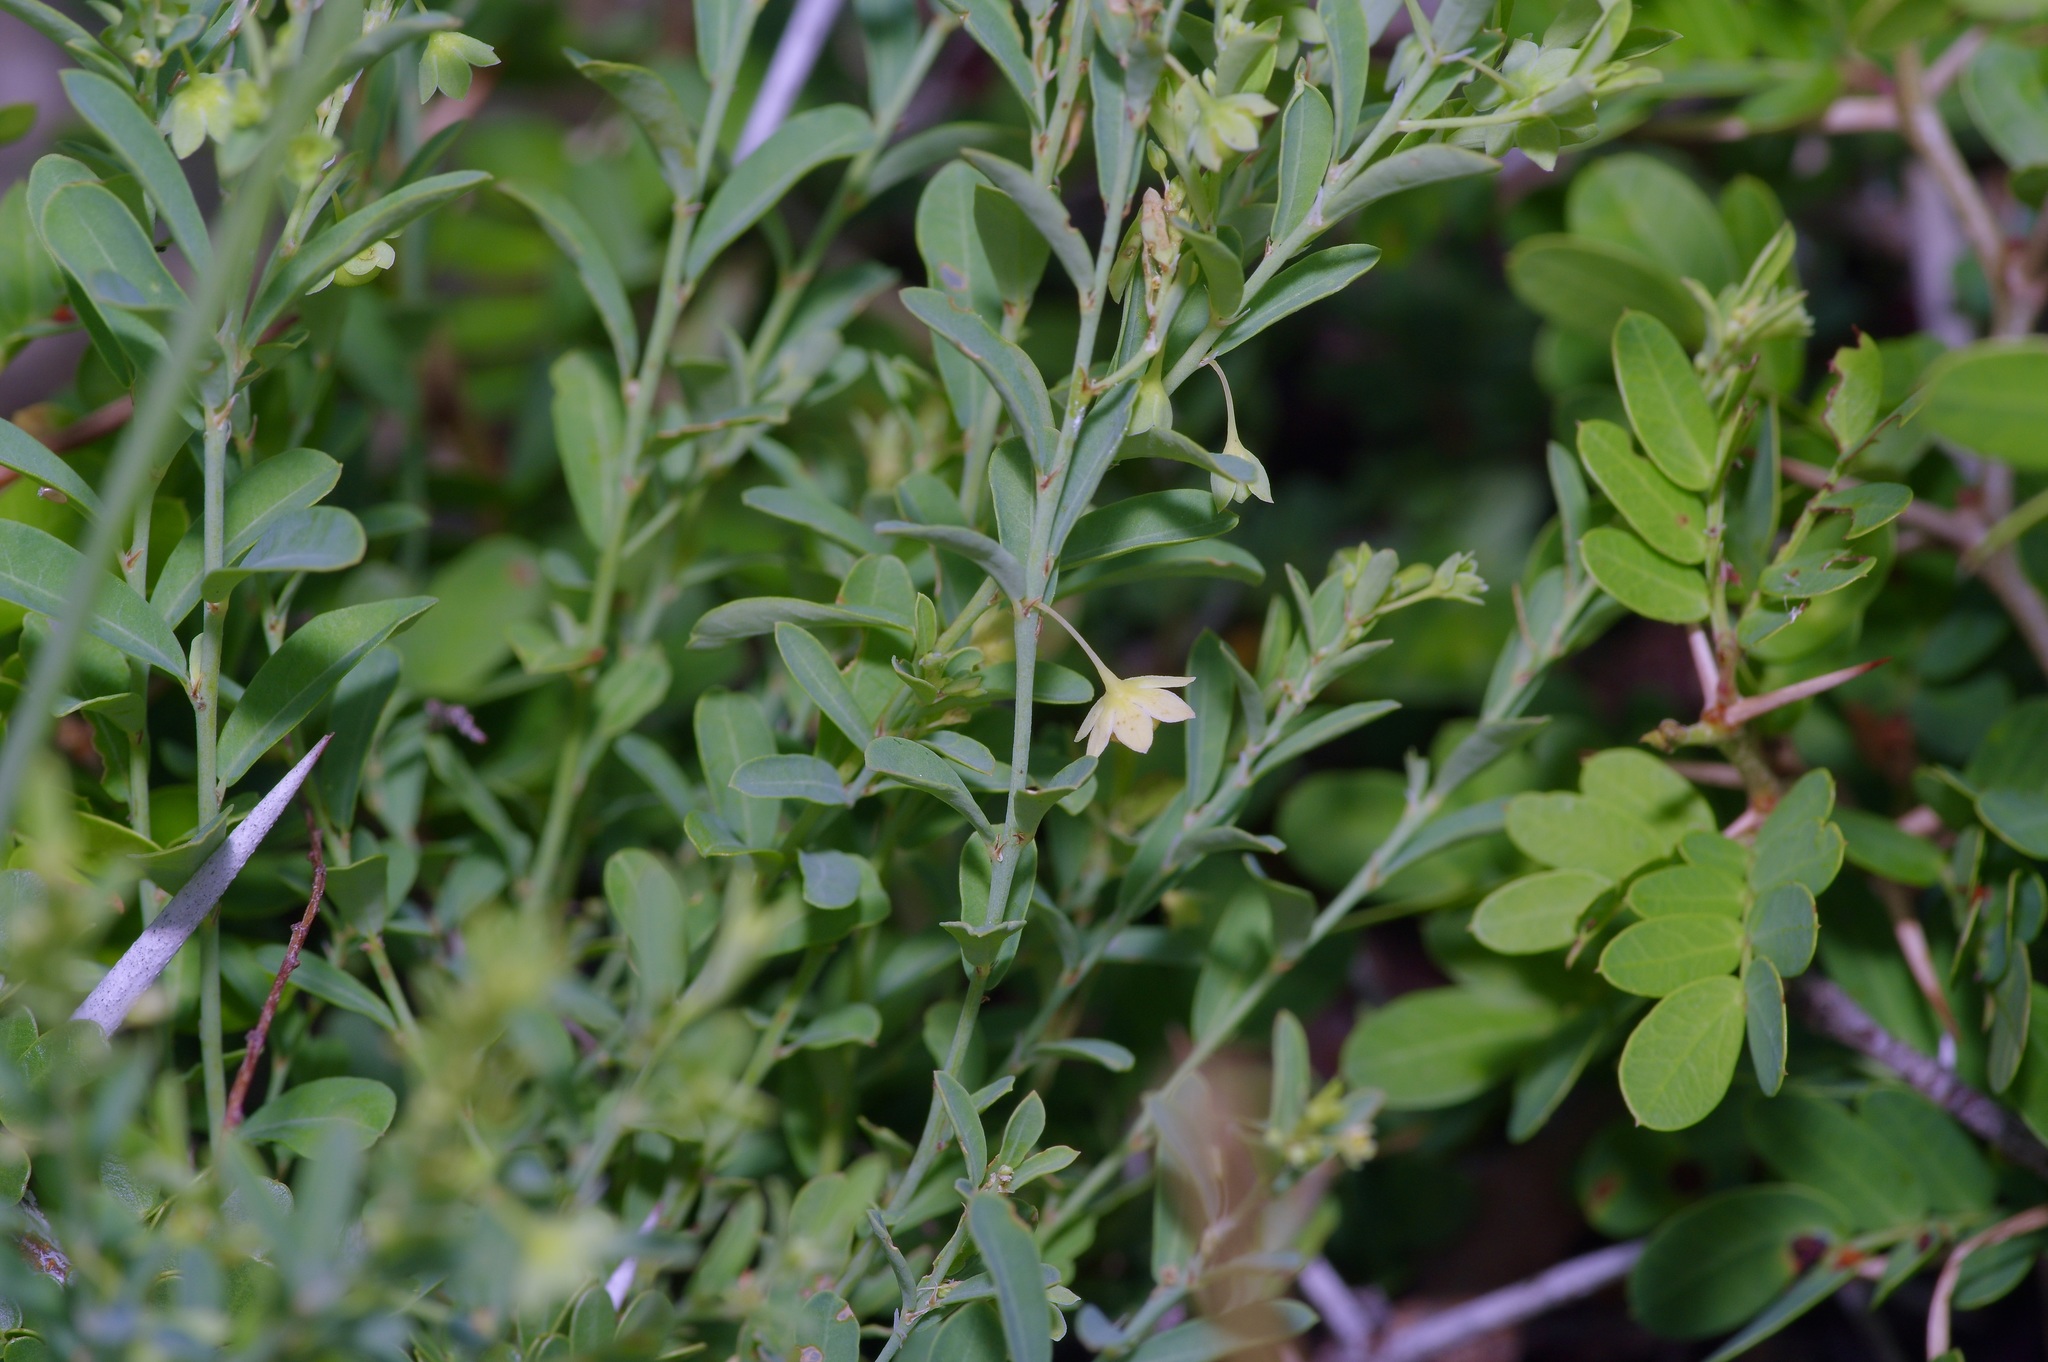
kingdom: Plantae
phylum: Tracheophyta
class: Magnoliopsida
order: Malpighiales
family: Phyllanthaceae
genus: Phyllanthus
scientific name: Phyllanthus polygonoides
